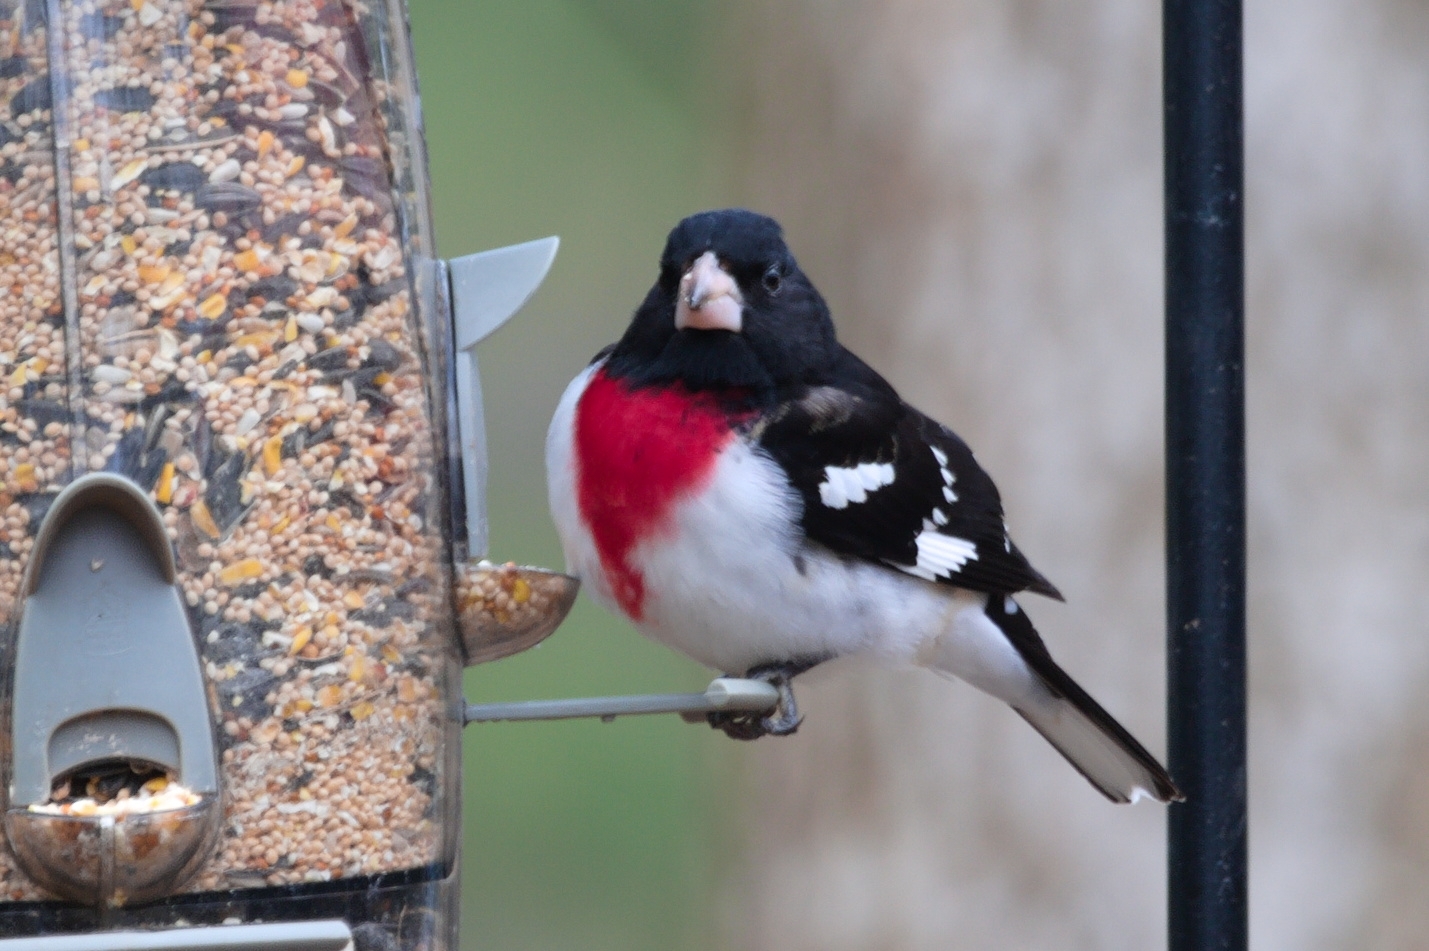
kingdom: Animalia
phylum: Chordata
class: Aves
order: Passeriformes
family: Cardinalidae
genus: Pheucticus
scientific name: Pheucticus ludovicianus
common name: Rose-breasted grosbeak
